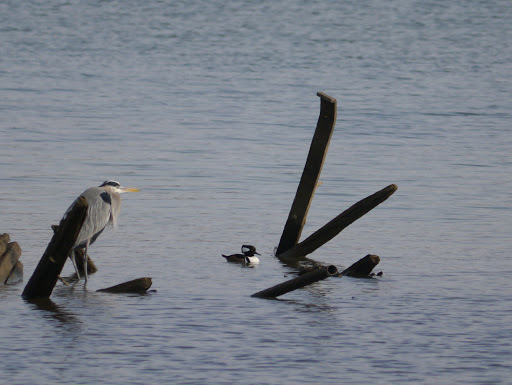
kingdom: Animalia
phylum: Chordata
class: Aves
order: Pelecaniformes
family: Ardeidae
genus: Ardea
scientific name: Ardea herodias
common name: Great blue heron
